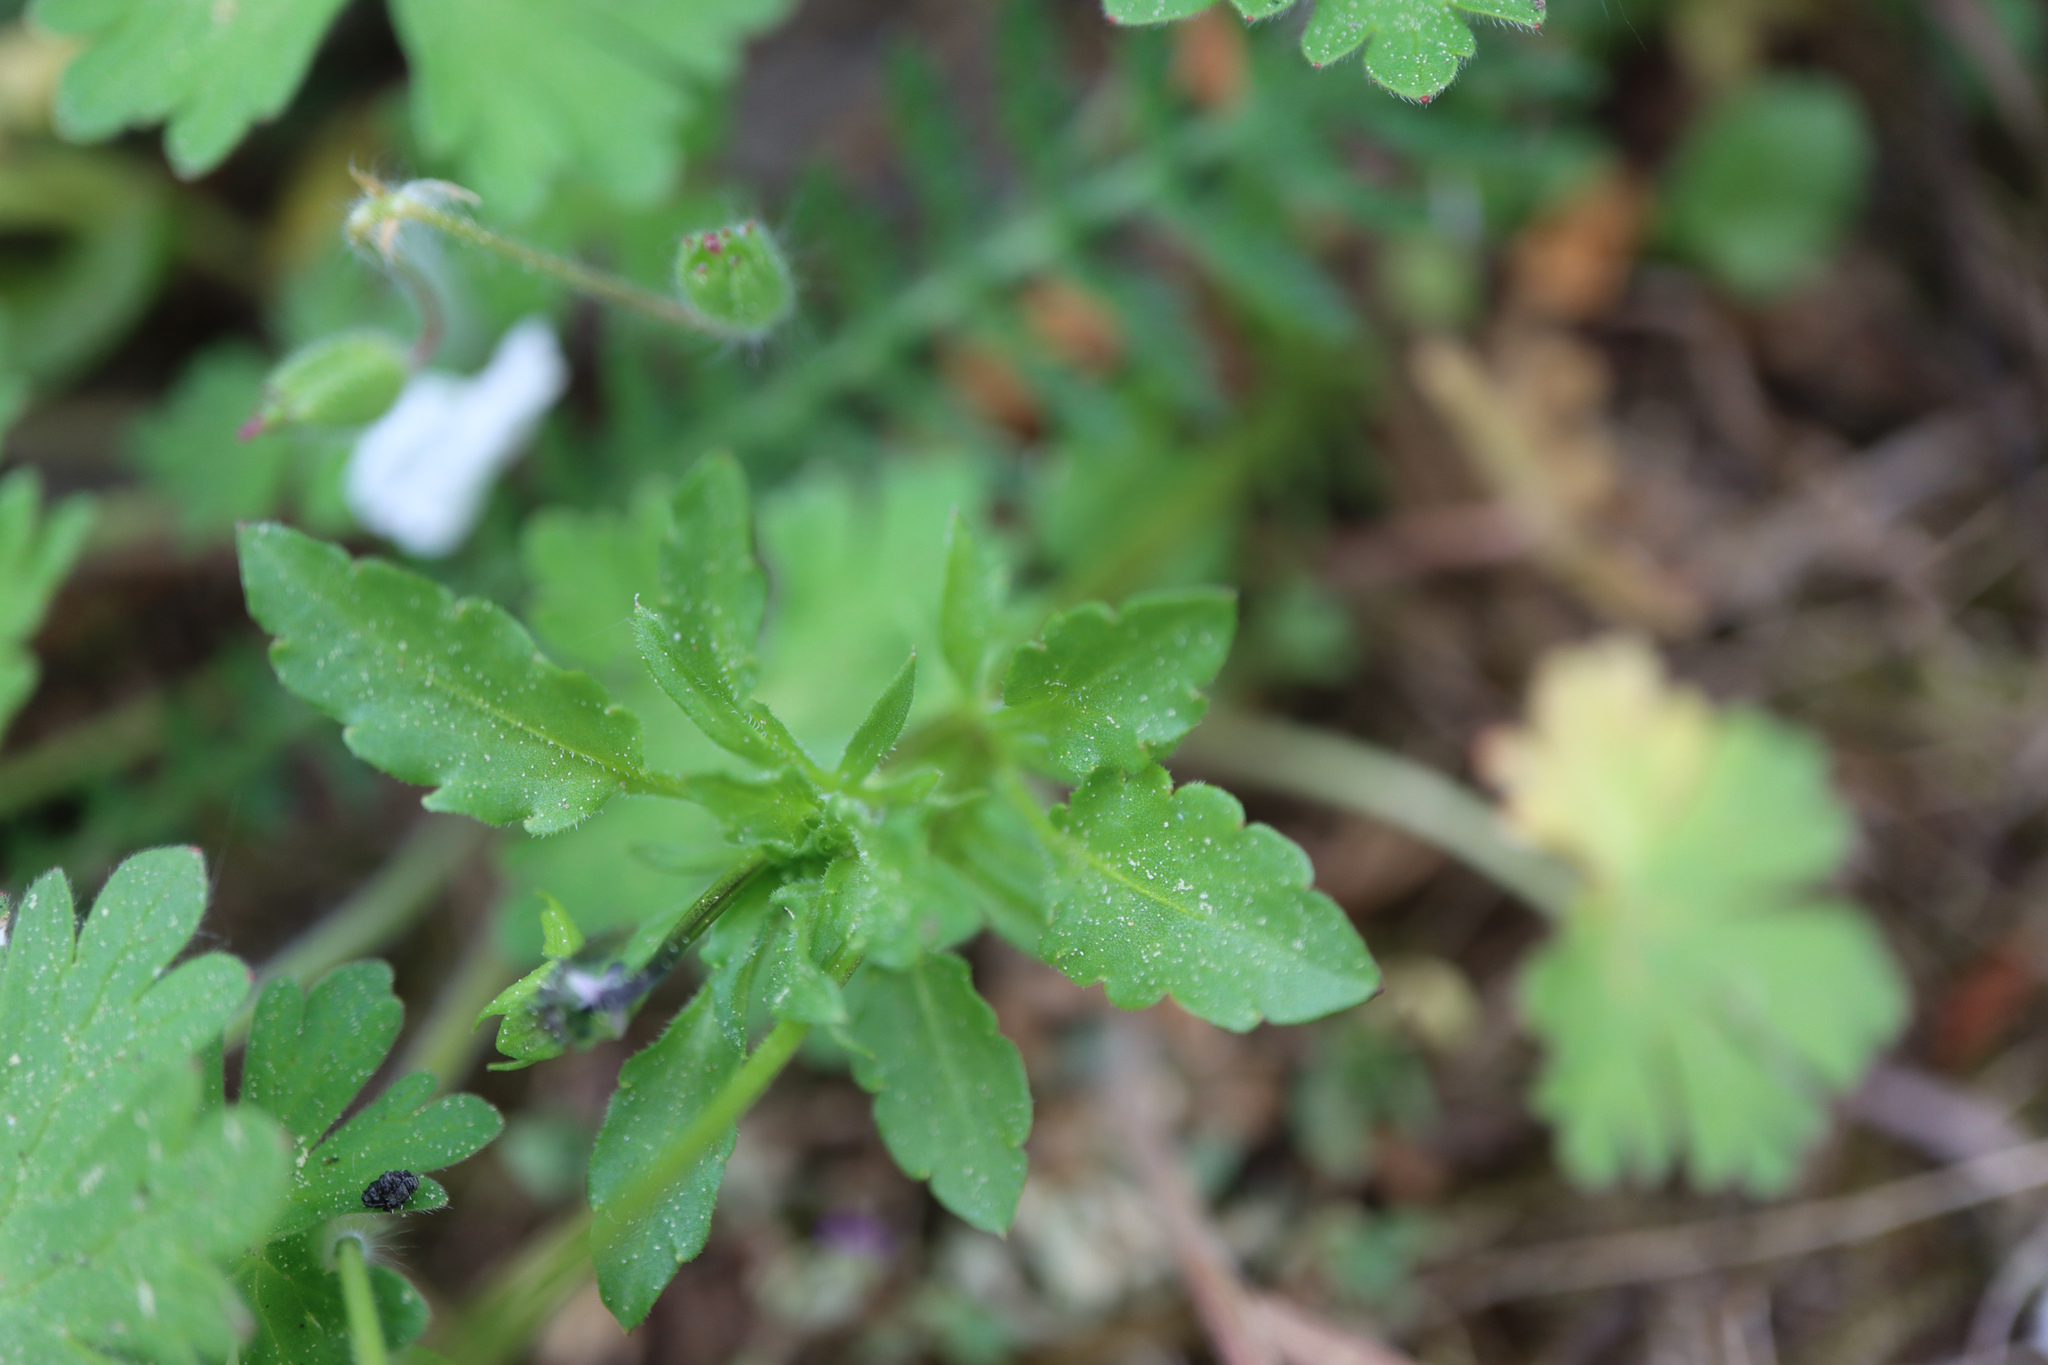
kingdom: Plantae
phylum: Tracheophyta
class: Magnoliopsida
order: Malpighiales
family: Violaceae
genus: Viola
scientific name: Viola arvensis
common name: Field pansy
